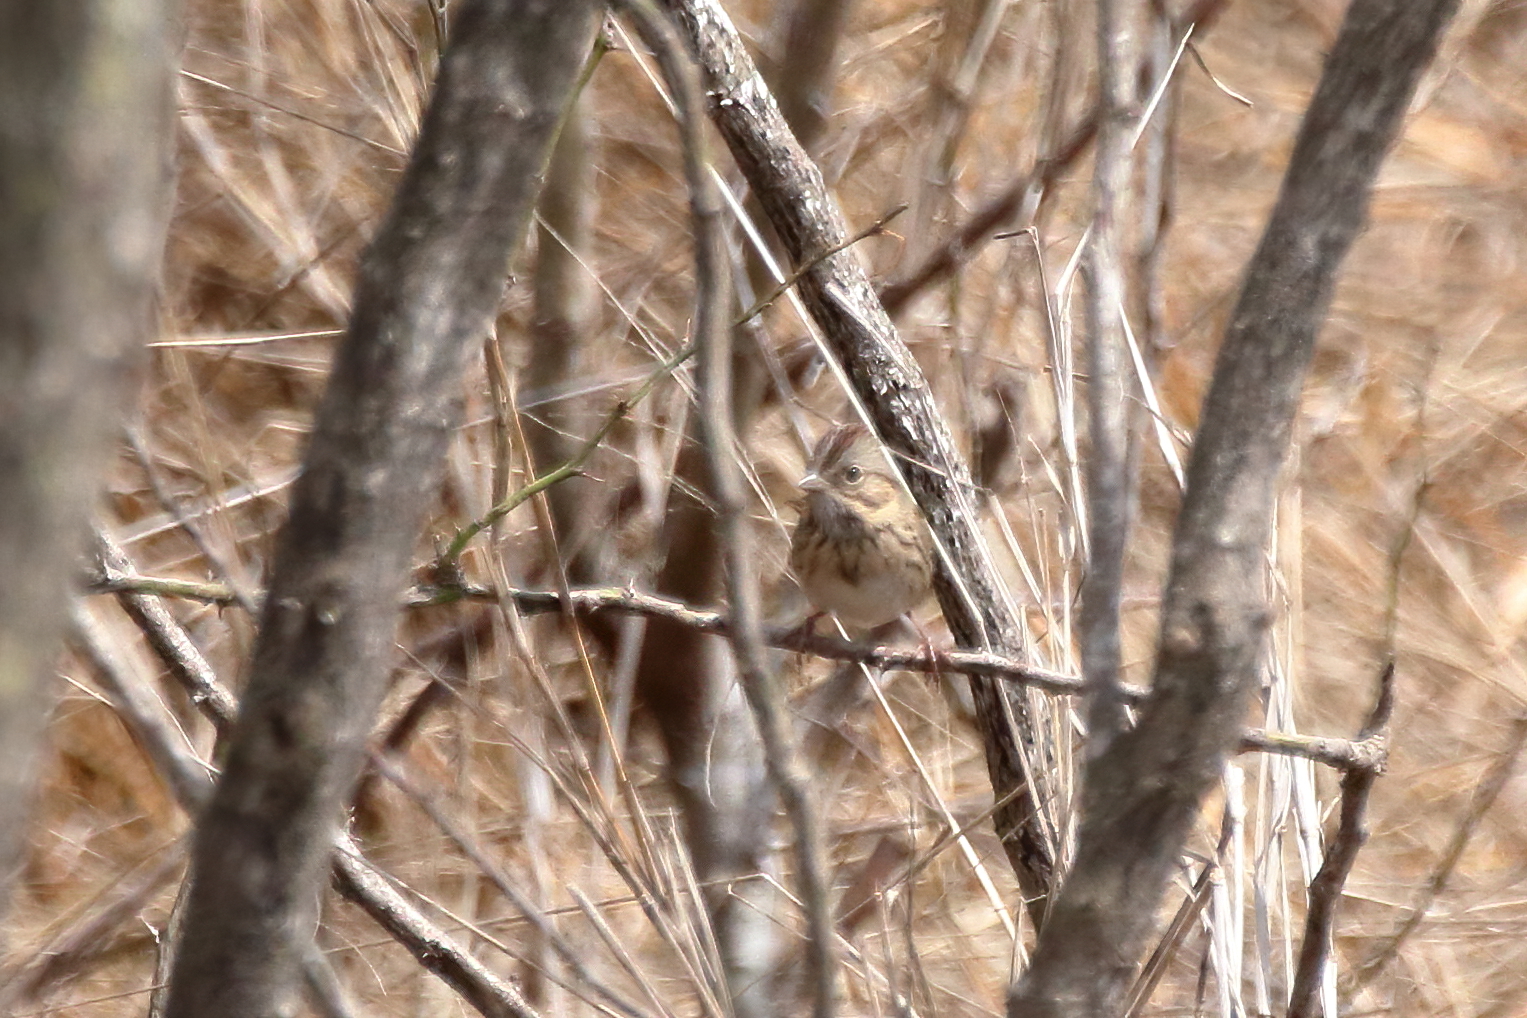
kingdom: Animalia
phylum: Chordata
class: Aves
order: Passeriformes
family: Passerellidae
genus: Melospiza
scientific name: Melospiza lincolnii
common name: Lincoln's sparrow
